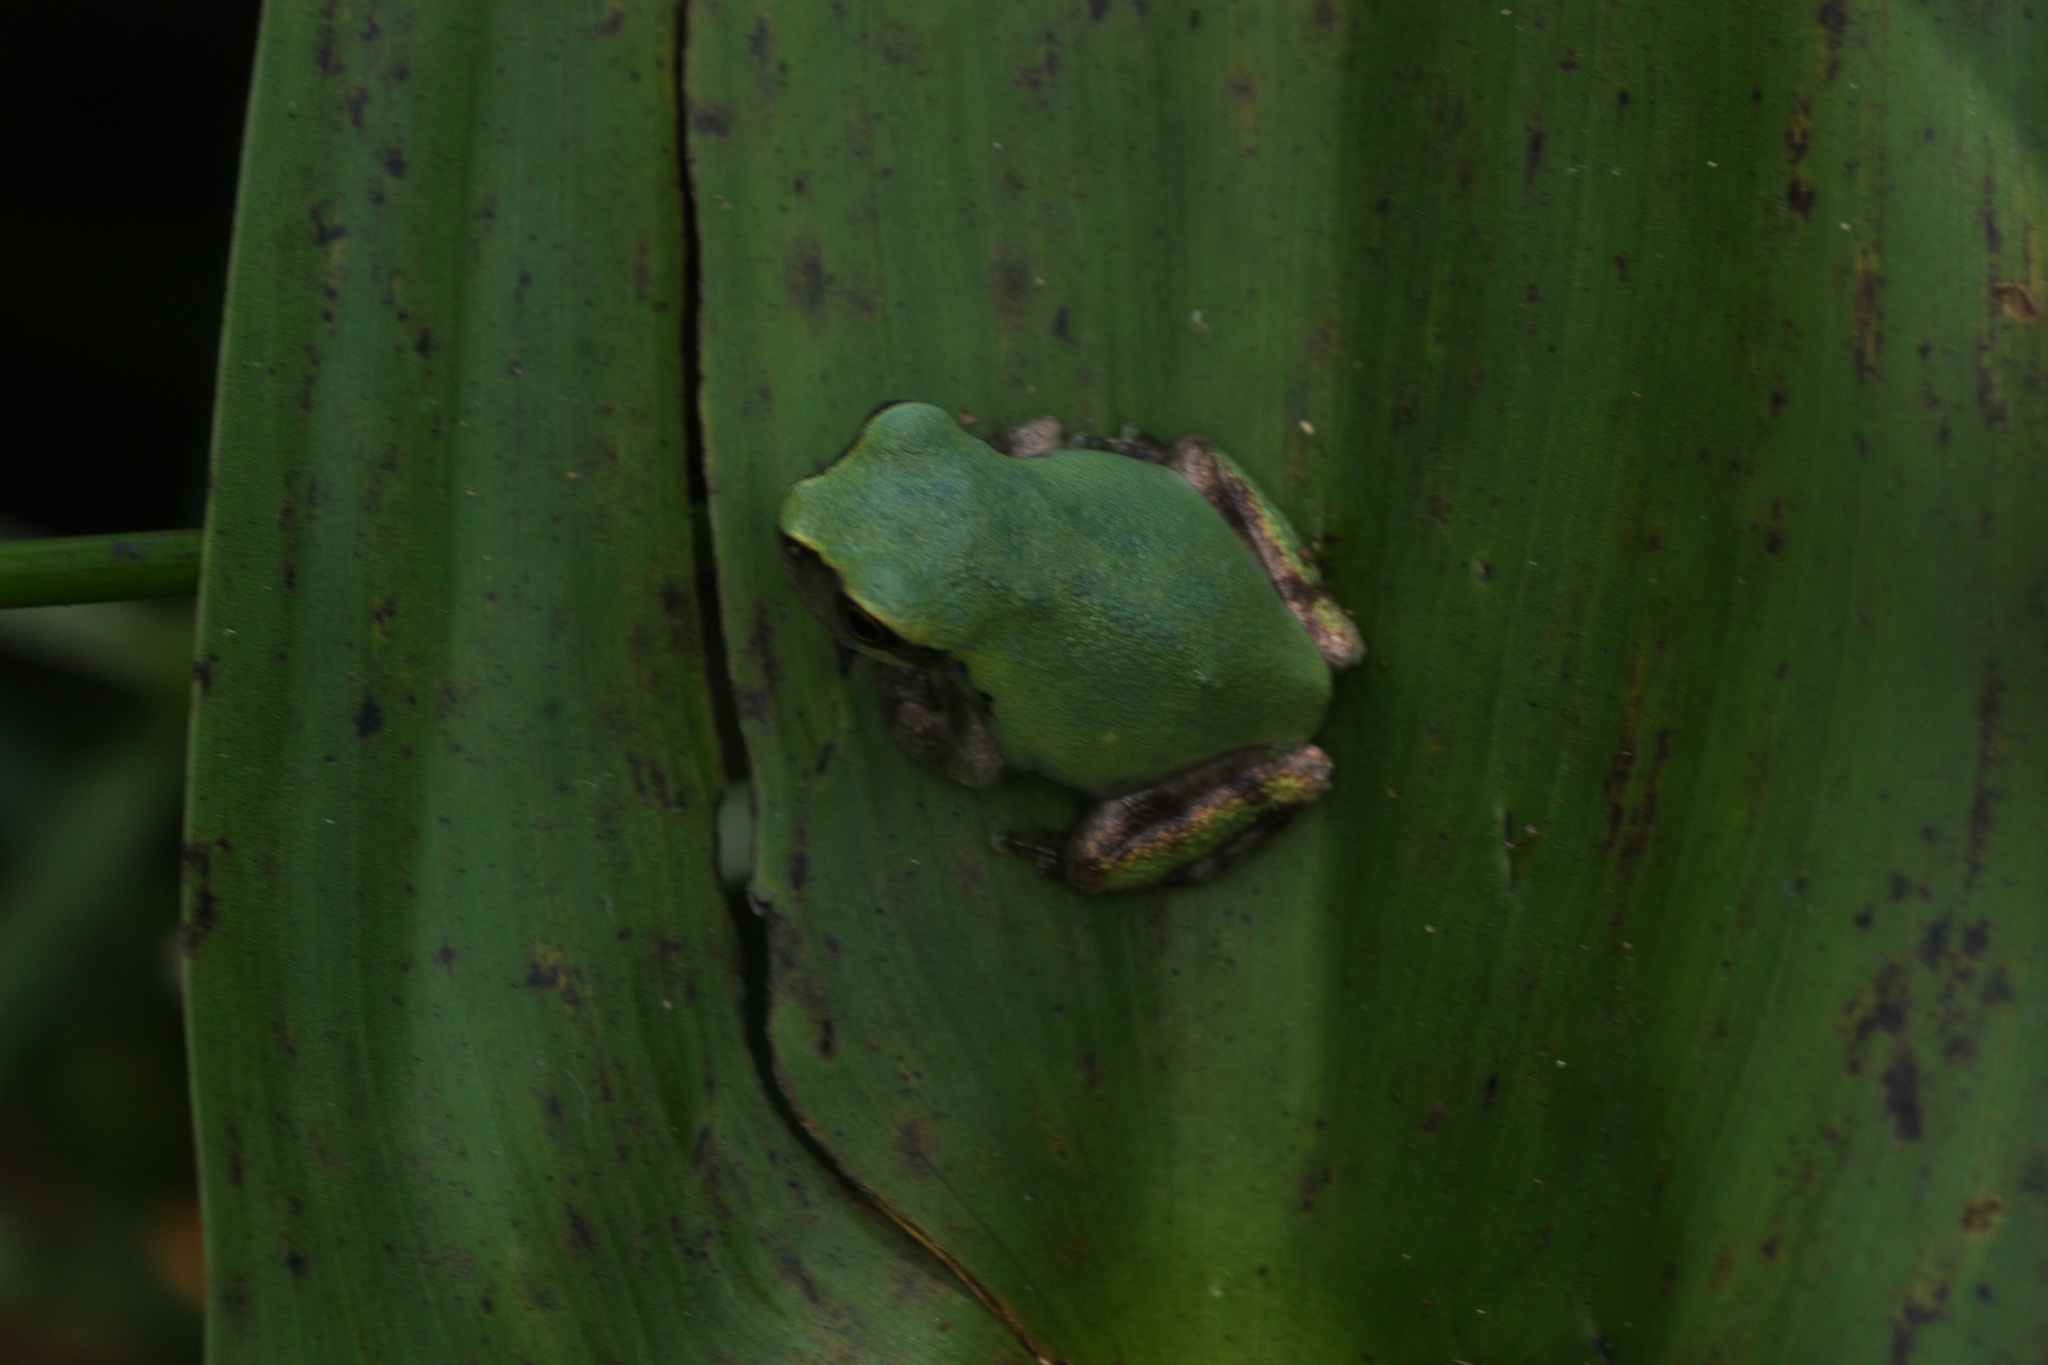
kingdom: Animalia
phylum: Chordata
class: Amphibia
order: Anura
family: Hylidae
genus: Dryophytes
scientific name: Dryophytes avivoca
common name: Bird-voiced treefrog
